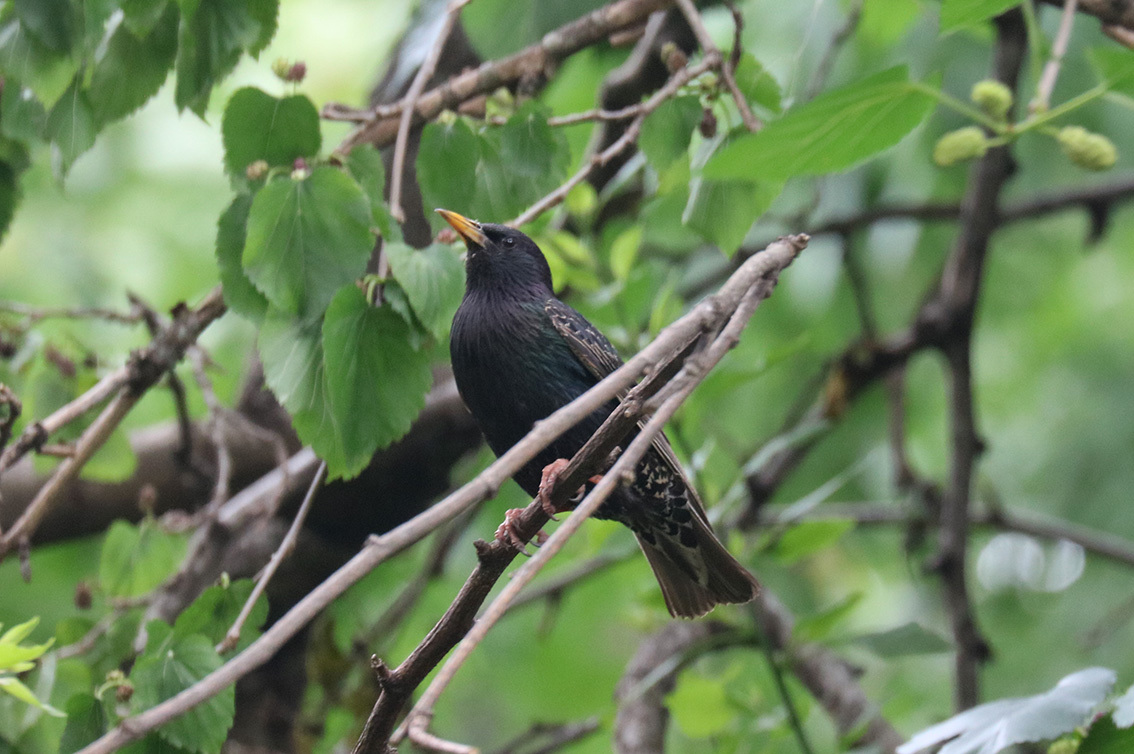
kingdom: Animalia
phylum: Chordata
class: Aves
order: Passeriformes
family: Sturnidae
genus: Sturnus
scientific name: Sturnus vulgaris
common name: Common starling
